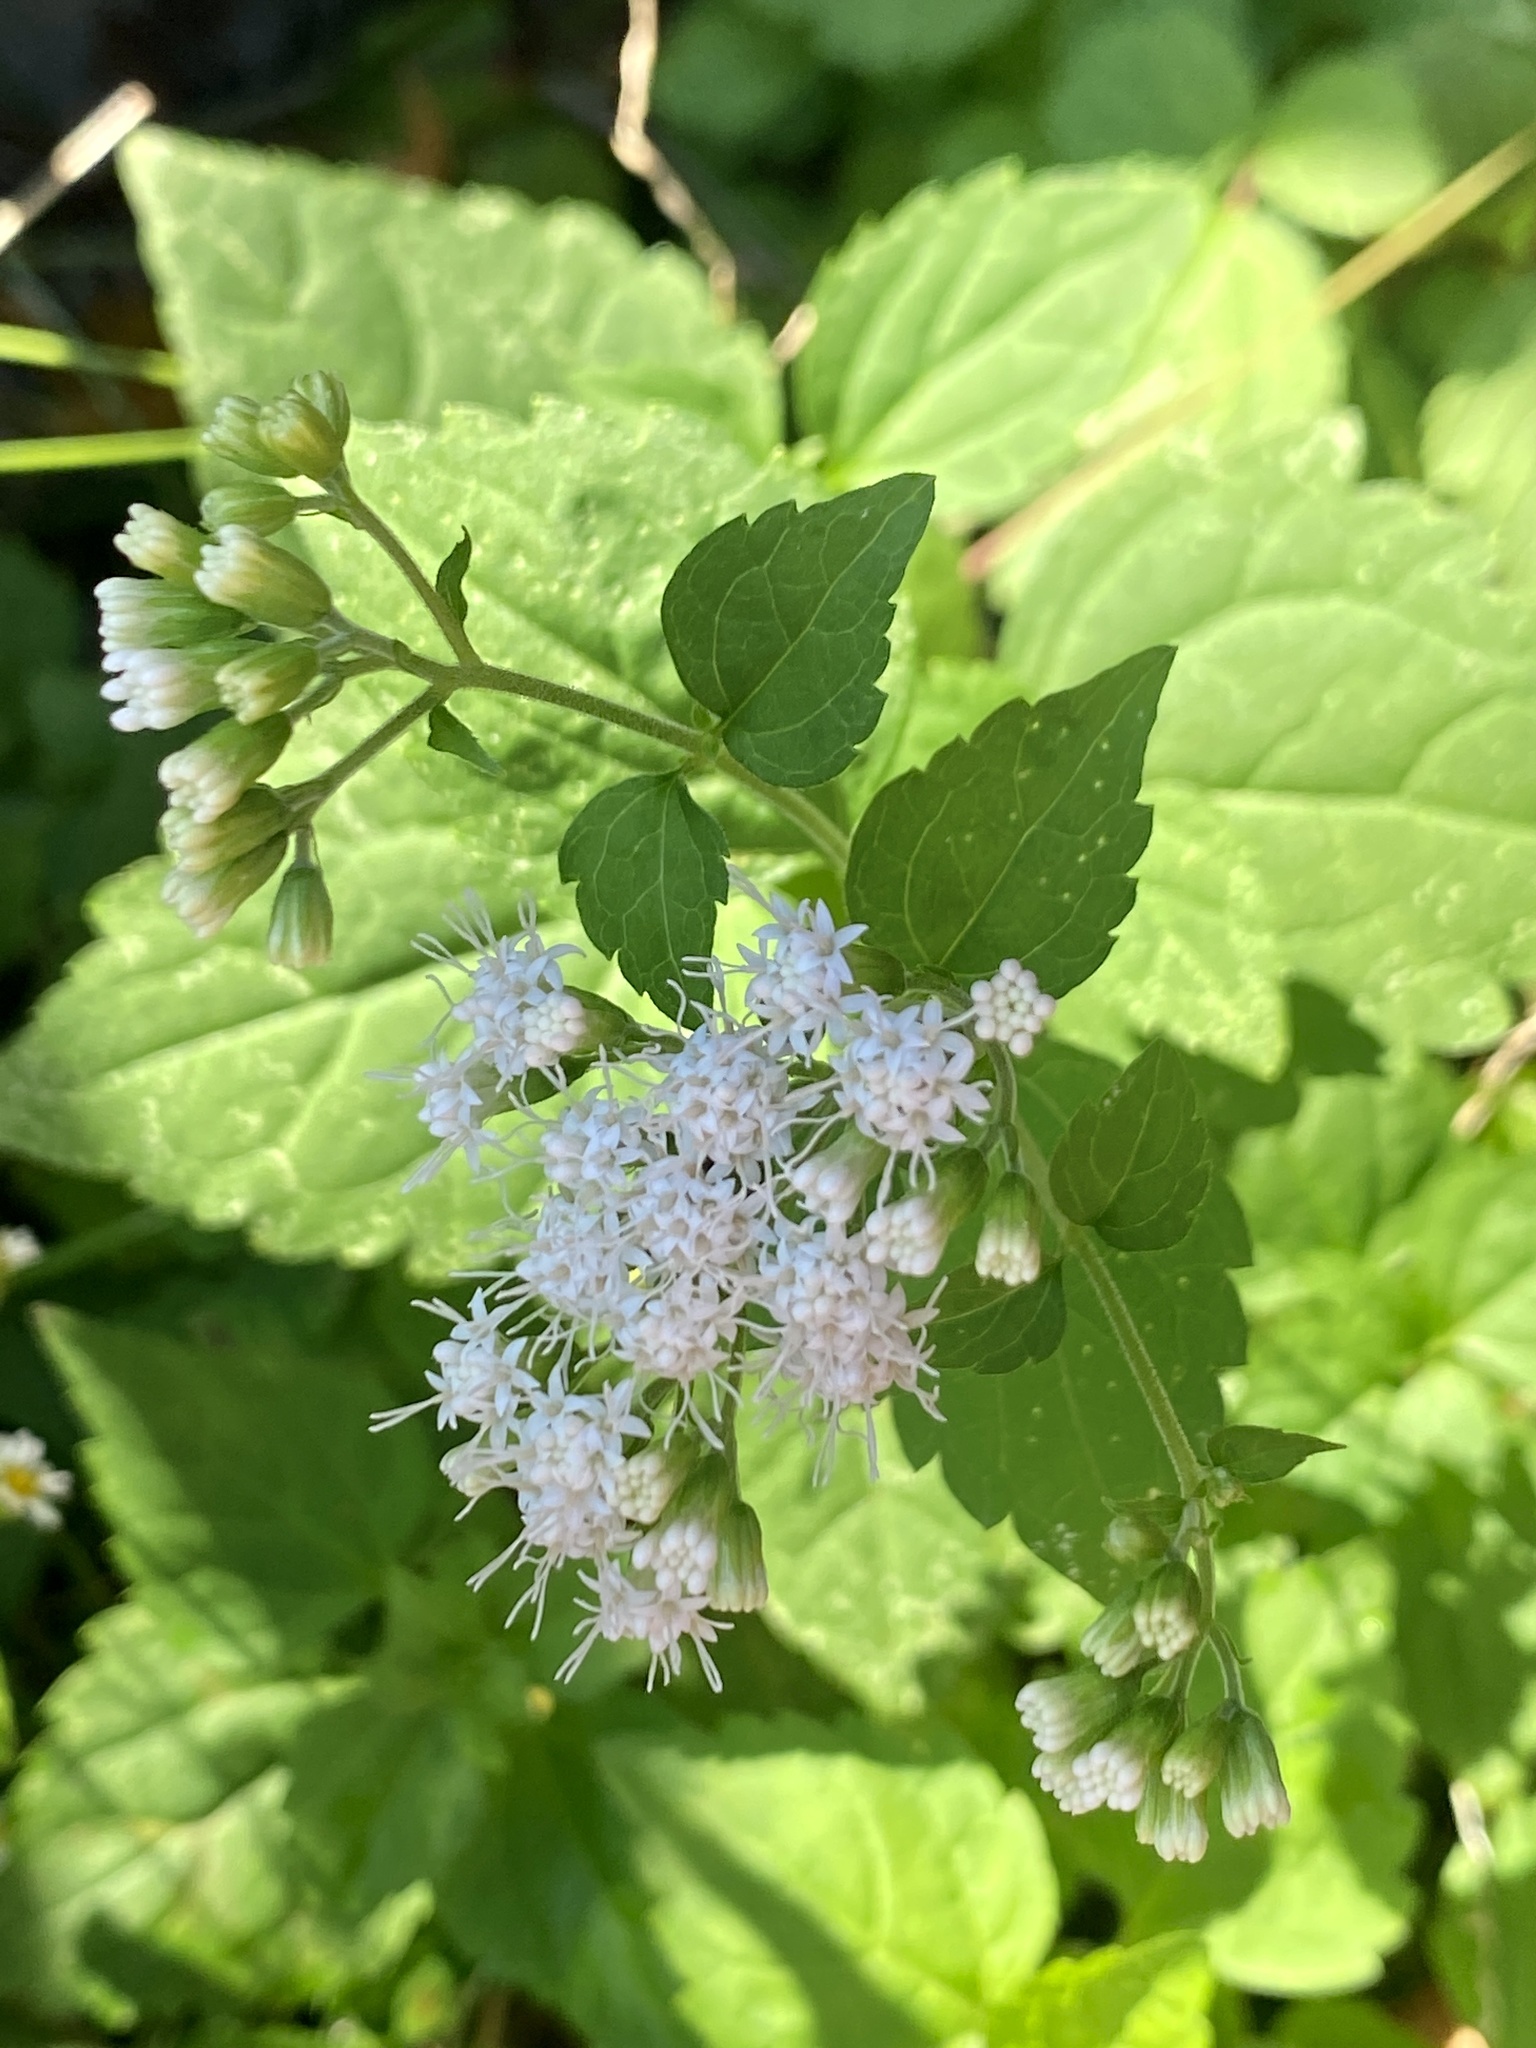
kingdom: Plantae
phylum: Tracheophyta
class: Magnoliopsida
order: Asterales
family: Asteraceae
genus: Ageratina
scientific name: Ageratina altissima
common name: White snakeroot
